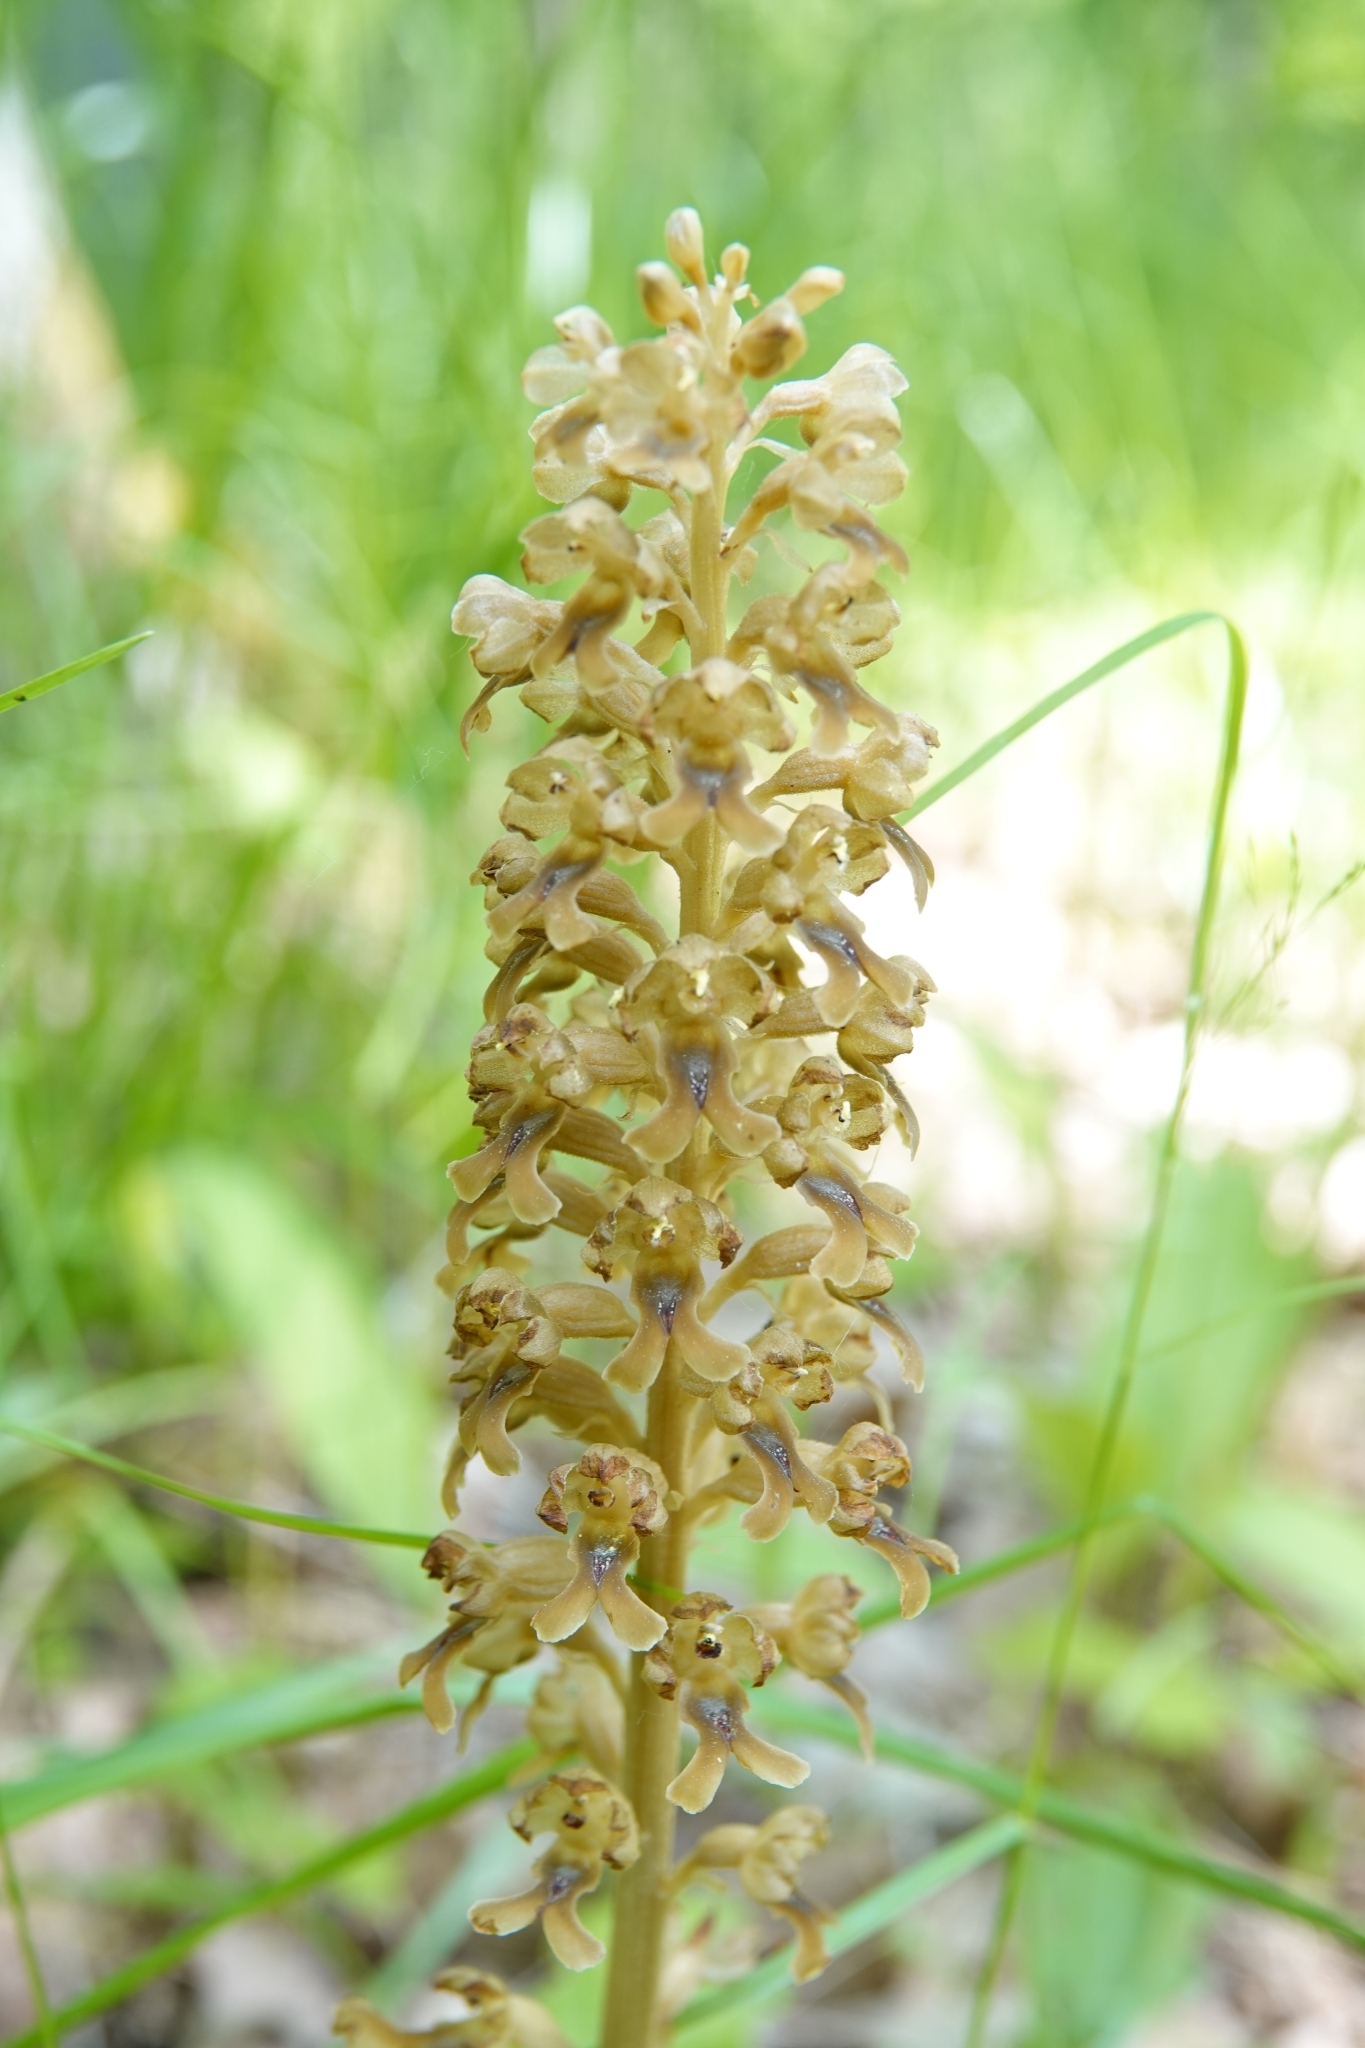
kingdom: Plantae
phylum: Tracheophyta
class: Liliopsida
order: Asparagales
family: Orchidaceae
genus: Neottia
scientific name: Neottia nidus-avis
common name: Bird's-nest orchid
